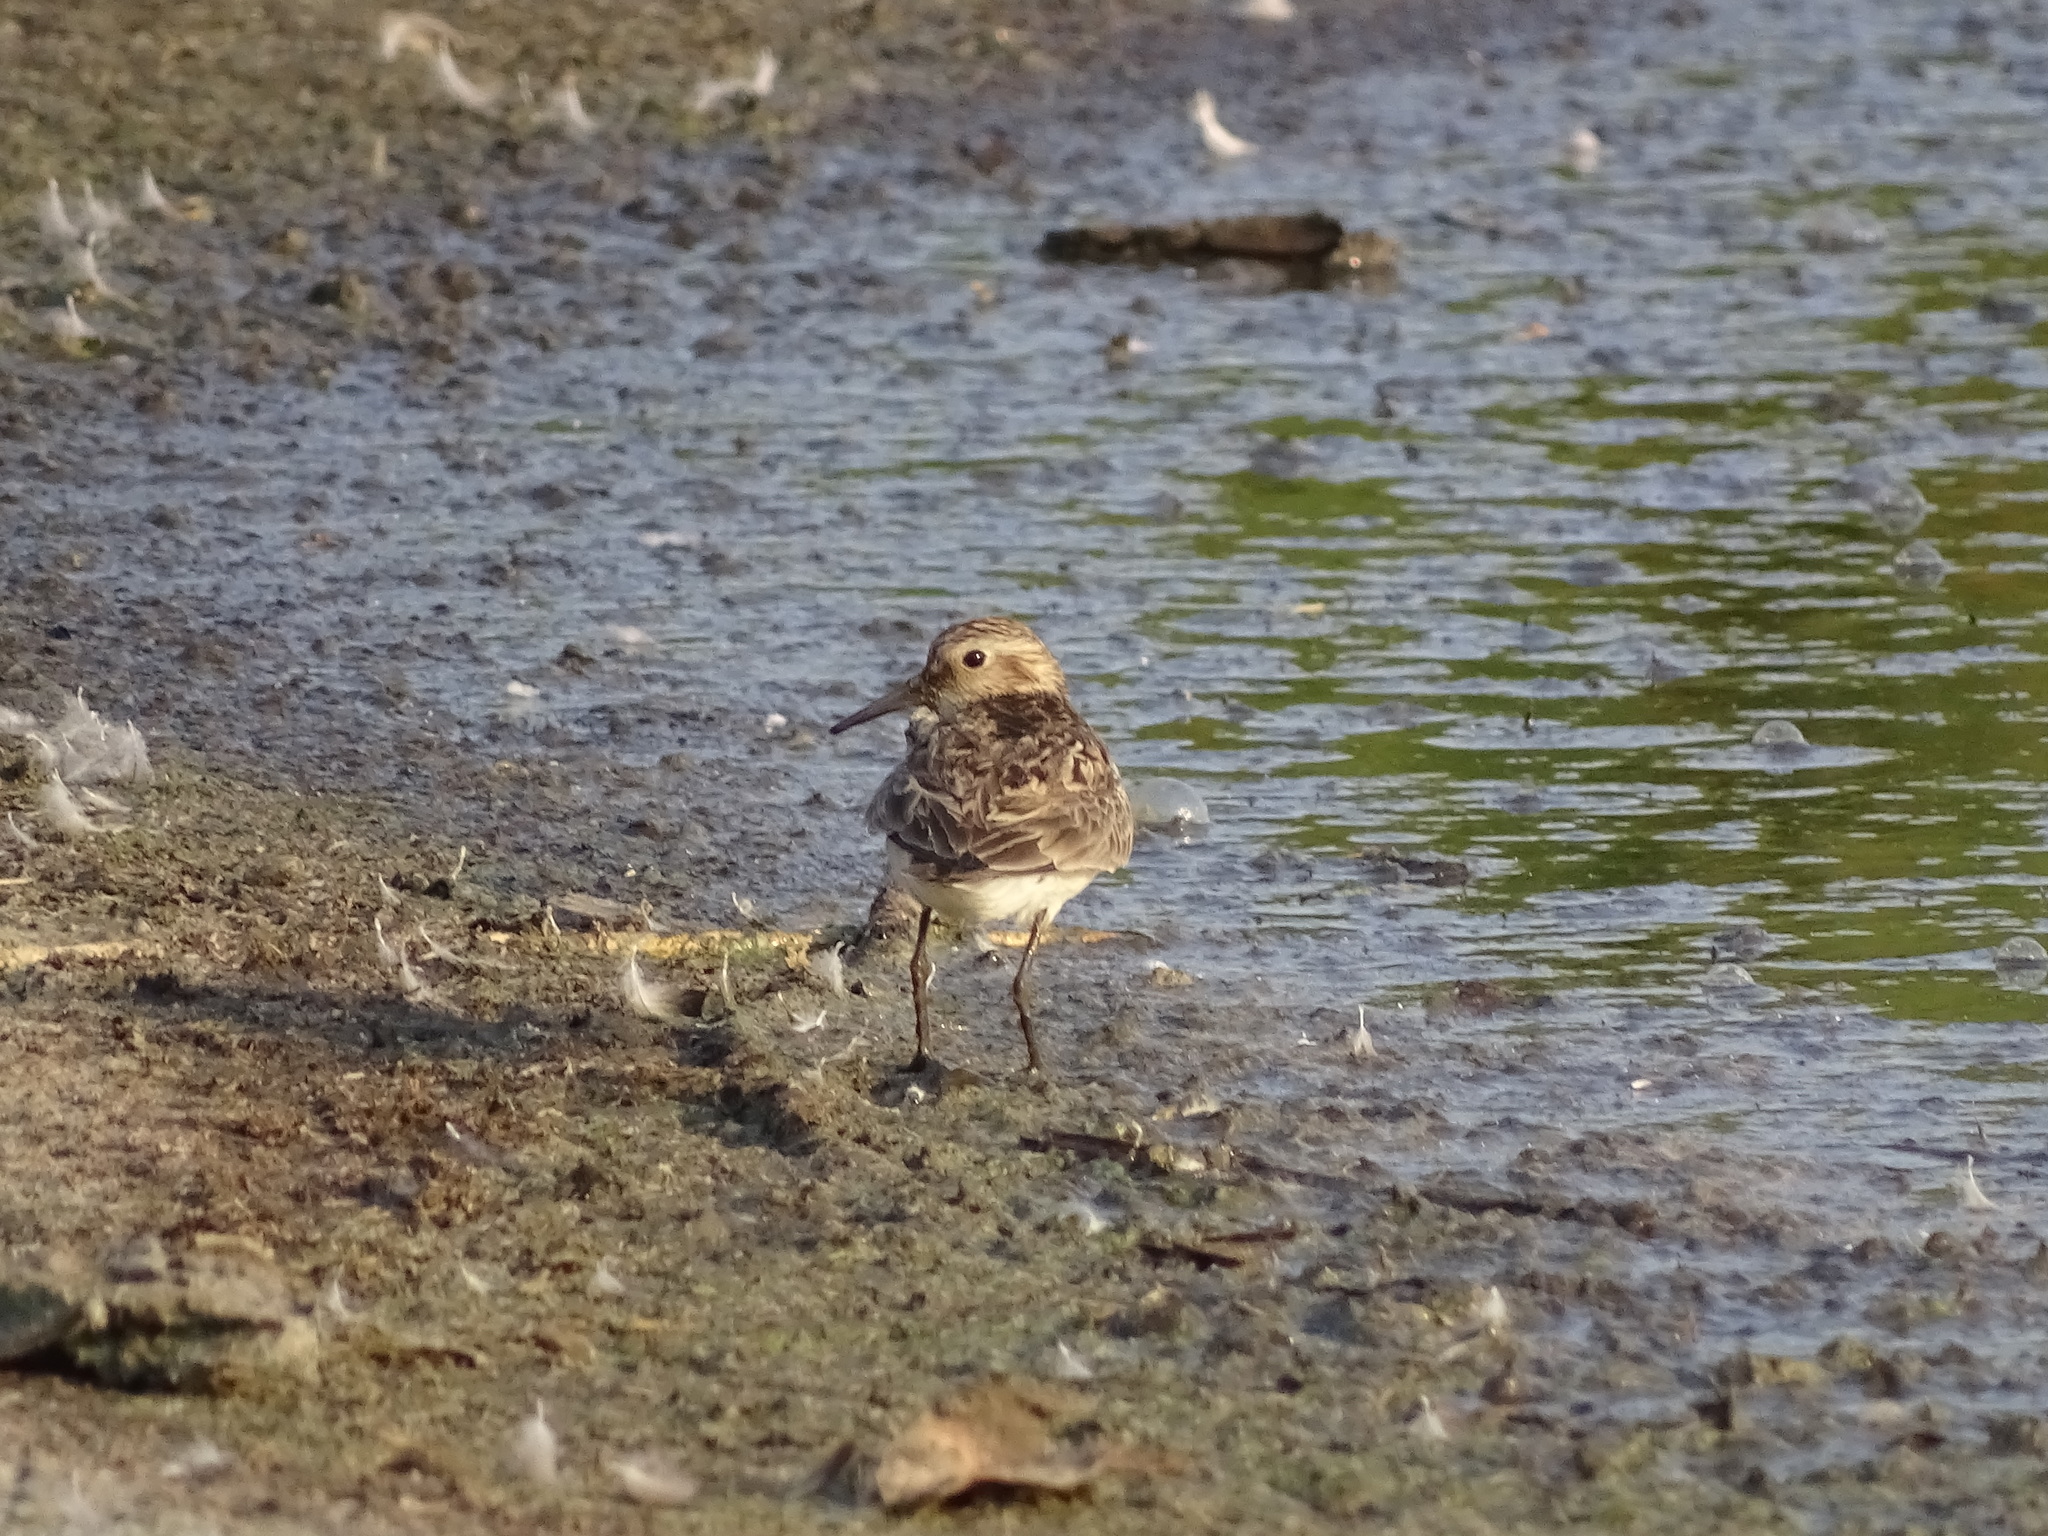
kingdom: Animalia
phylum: Chordata
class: Aves
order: Charadriiformes
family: Scolopacidae
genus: Calidris
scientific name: Calidris bairdii
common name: Baird's sandpiper
